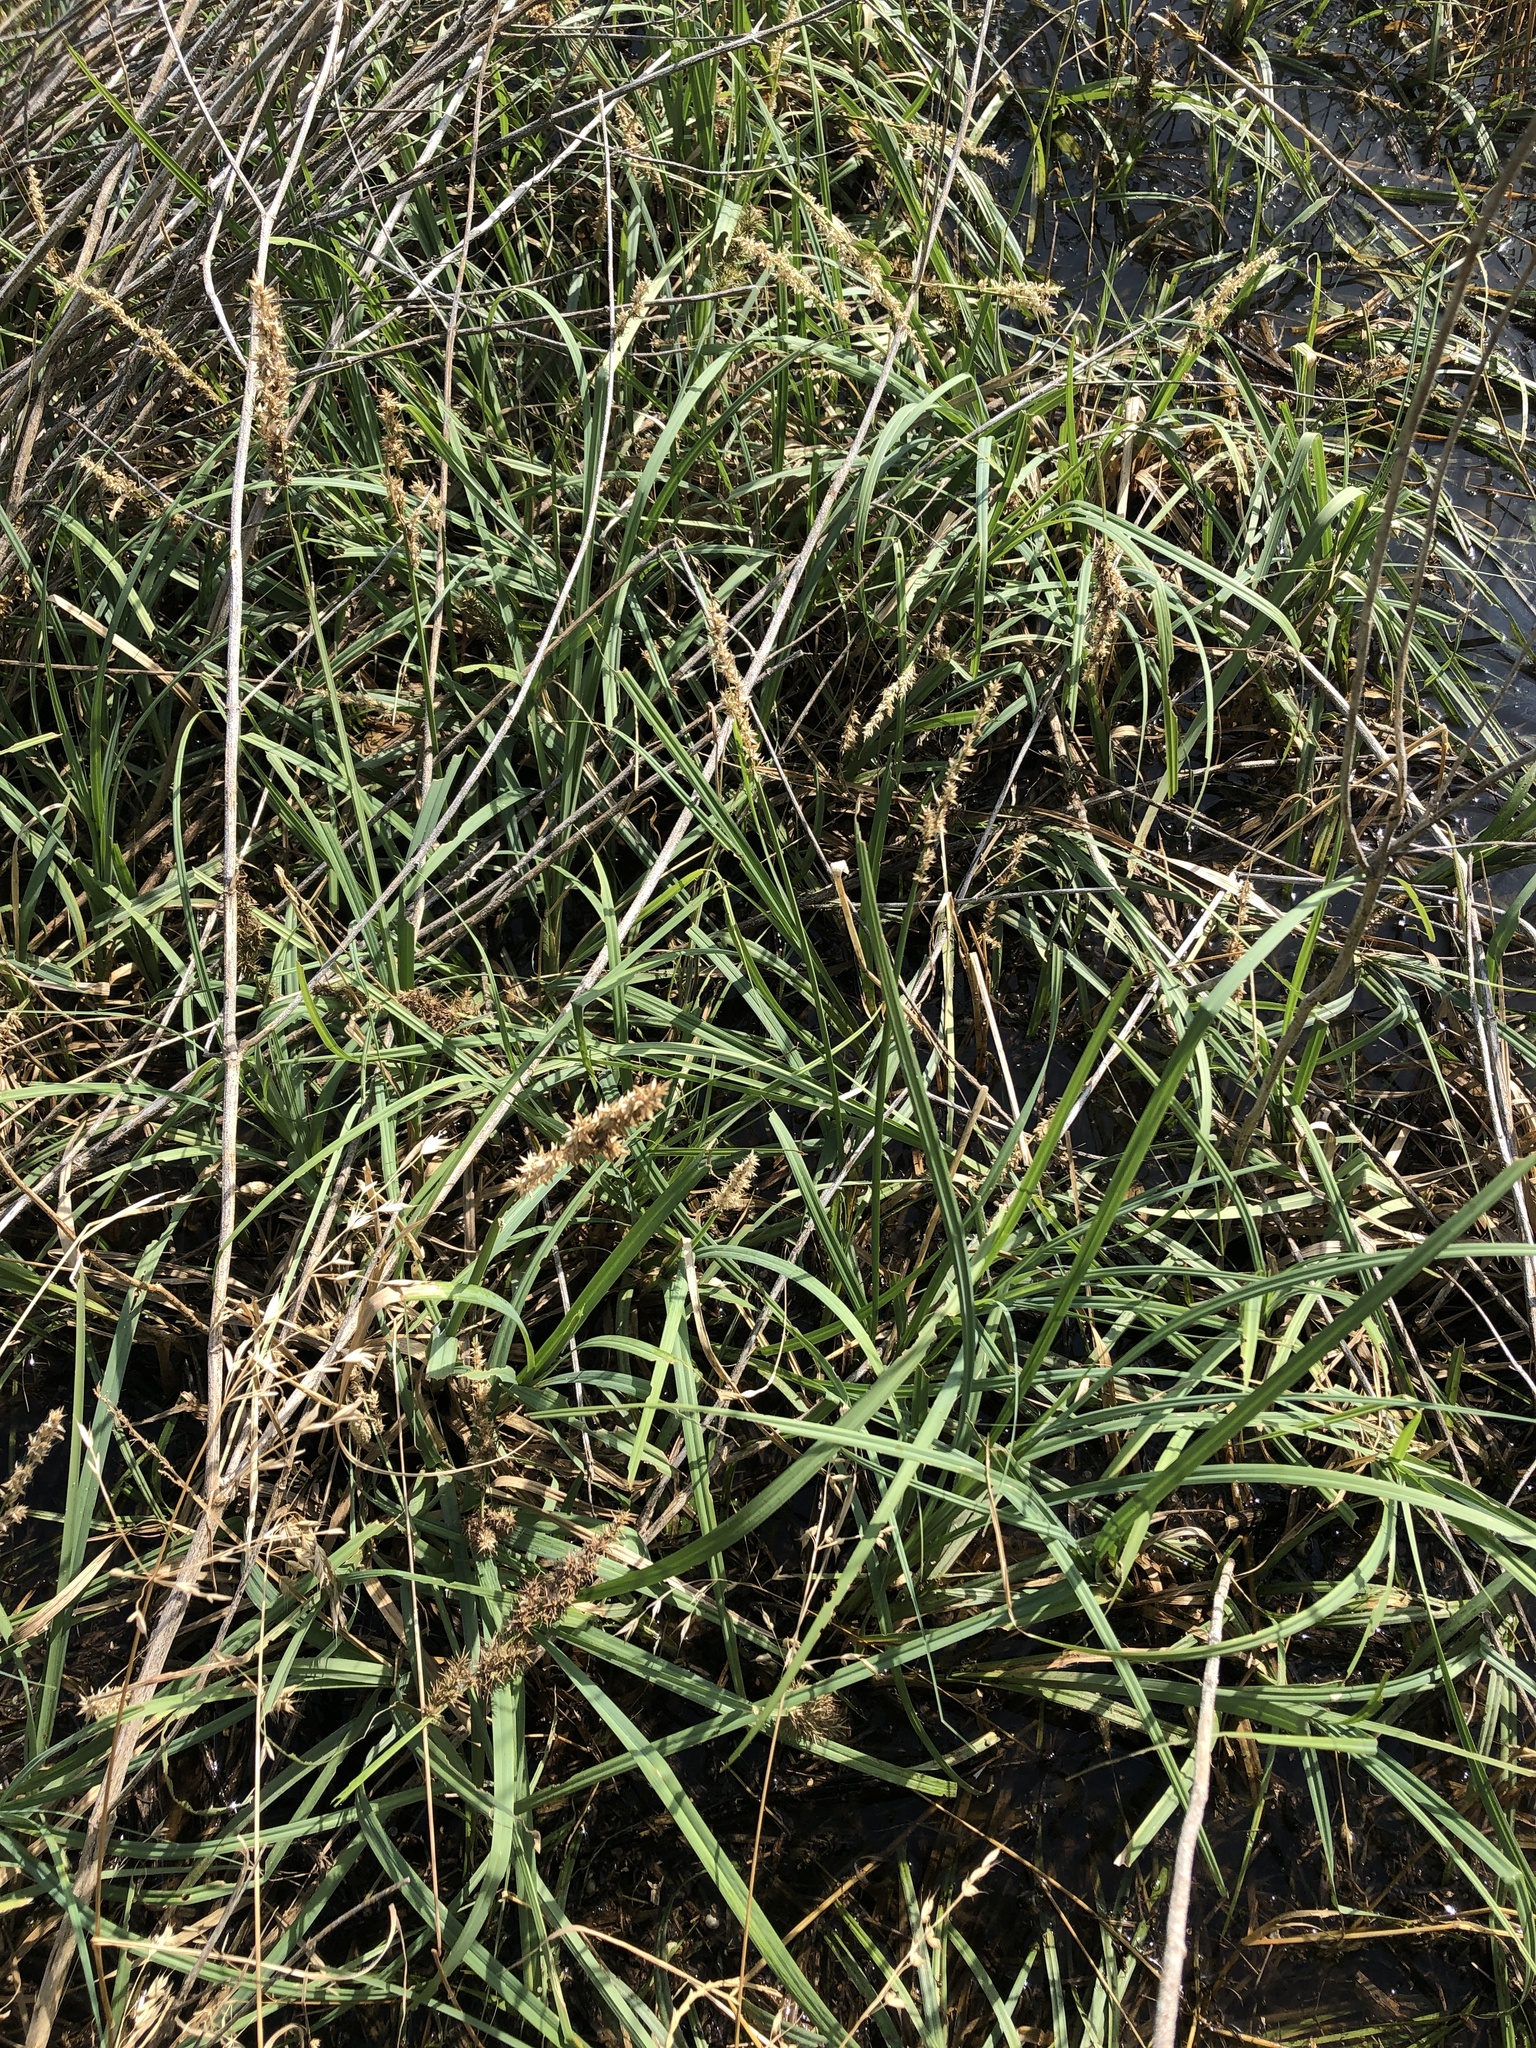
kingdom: Plantae
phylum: Tracheophyta
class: Liliopsida
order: Poales
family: Cyperaceae
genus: Carex
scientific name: Carex crus-corvi
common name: Crow-spur sedge
